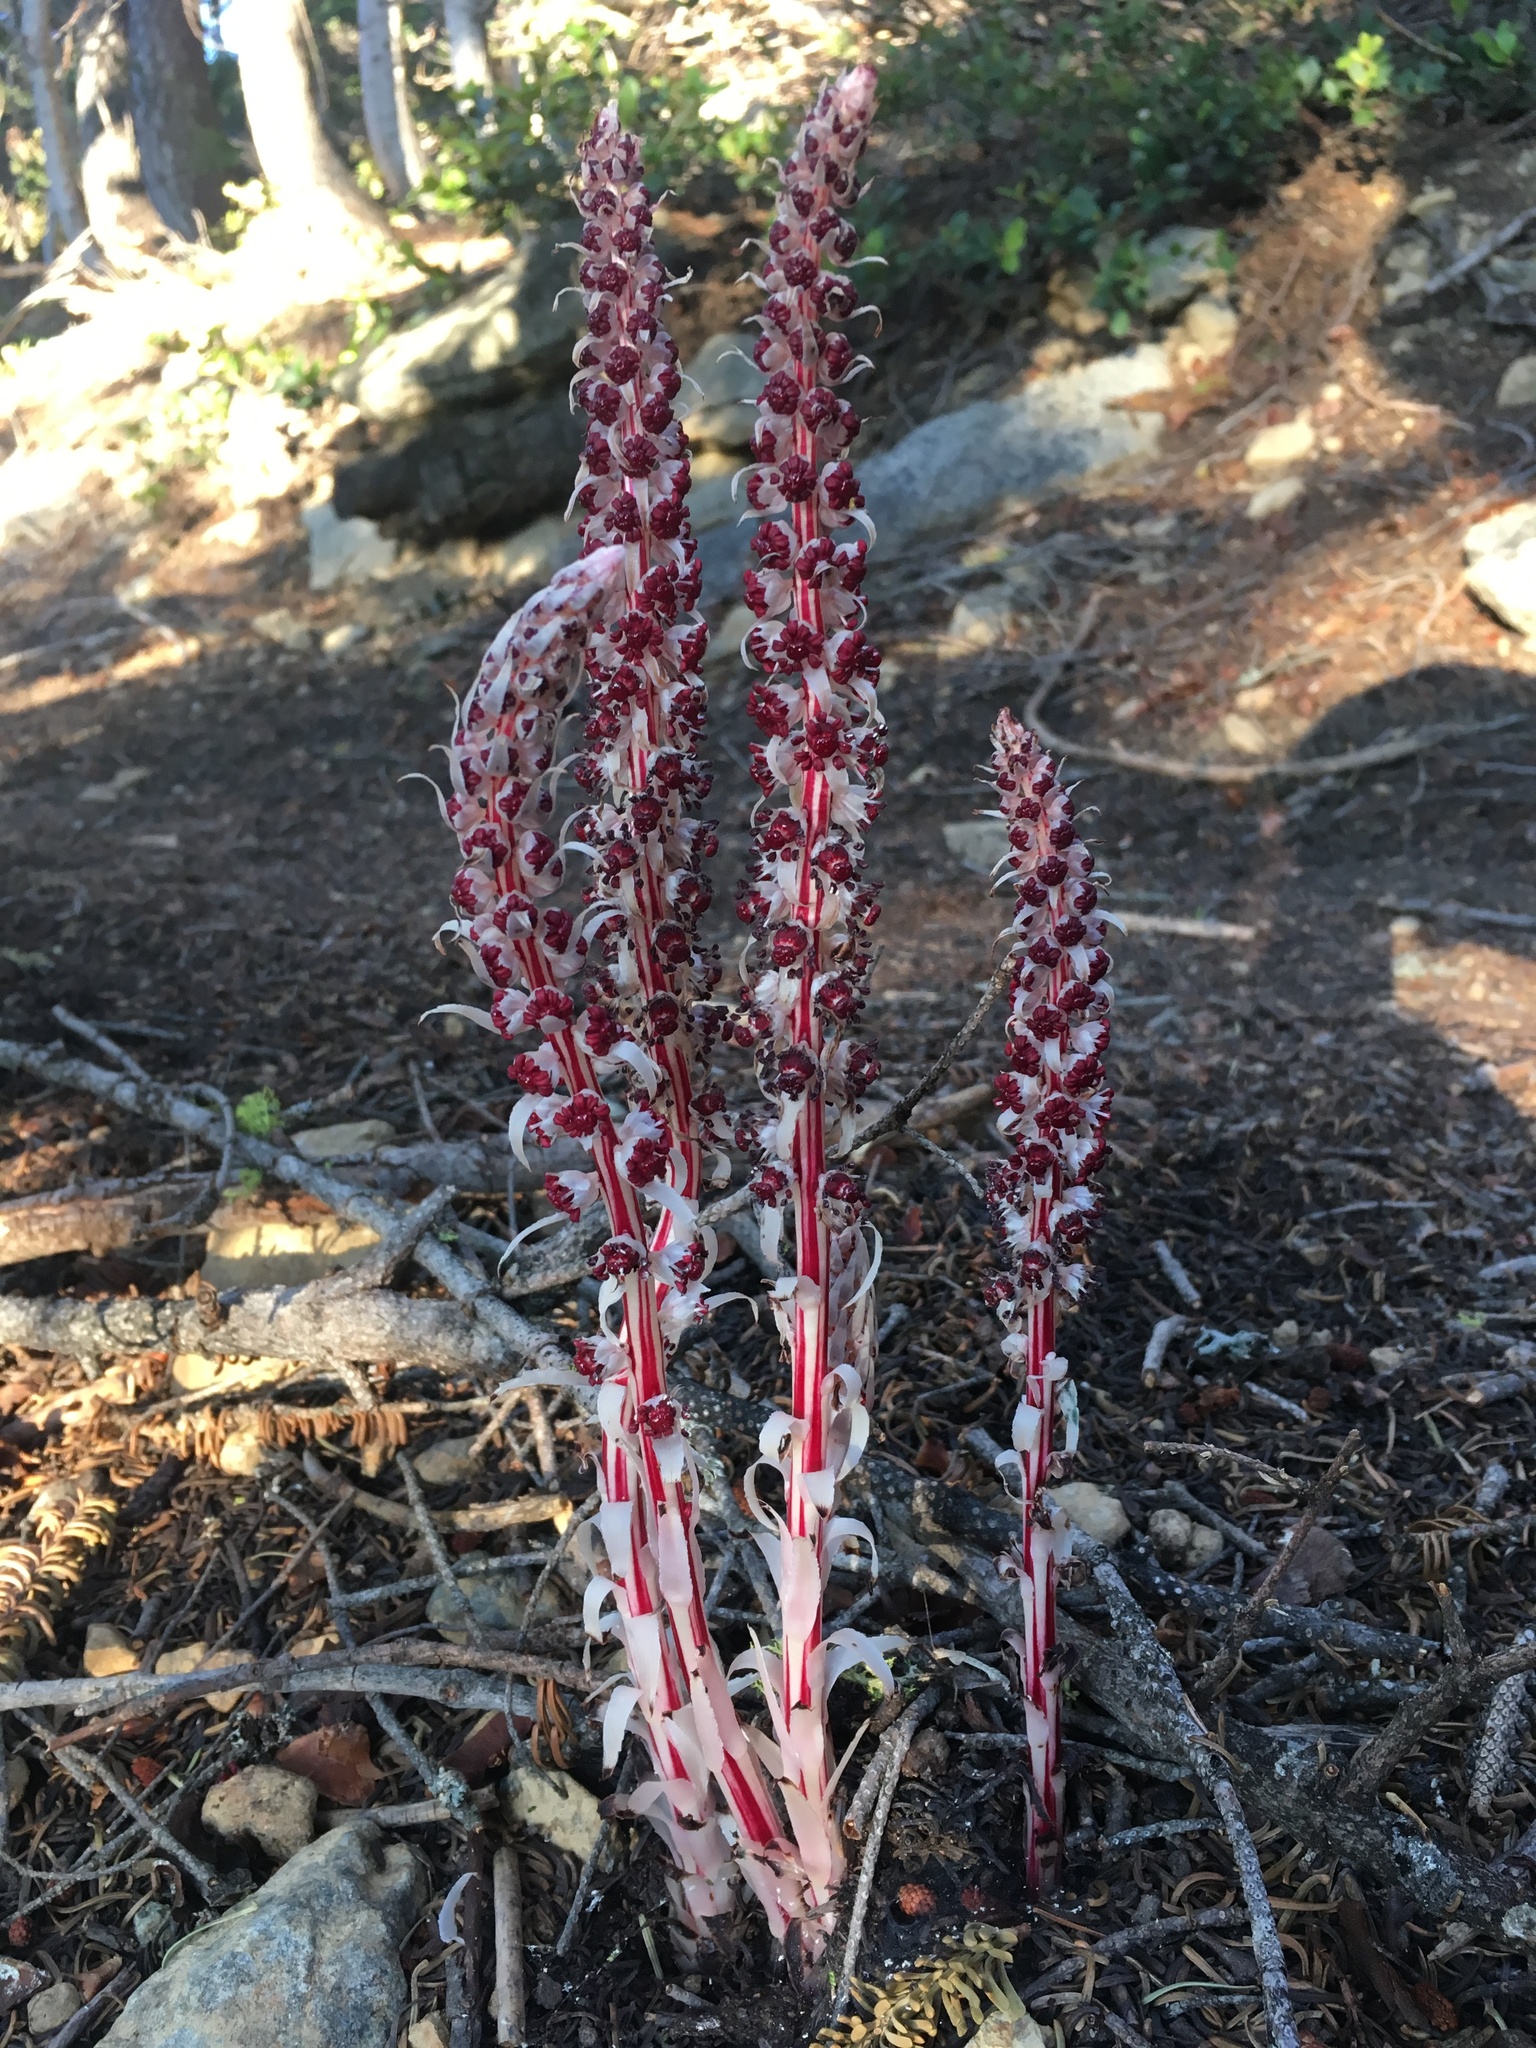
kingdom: Plantae
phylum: Tracheophyta
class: Magnoliopsida
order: Ericales
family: Ericaceae
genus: Allotropa
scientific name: Allotropa virgata
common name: Candy-striped allotropa
